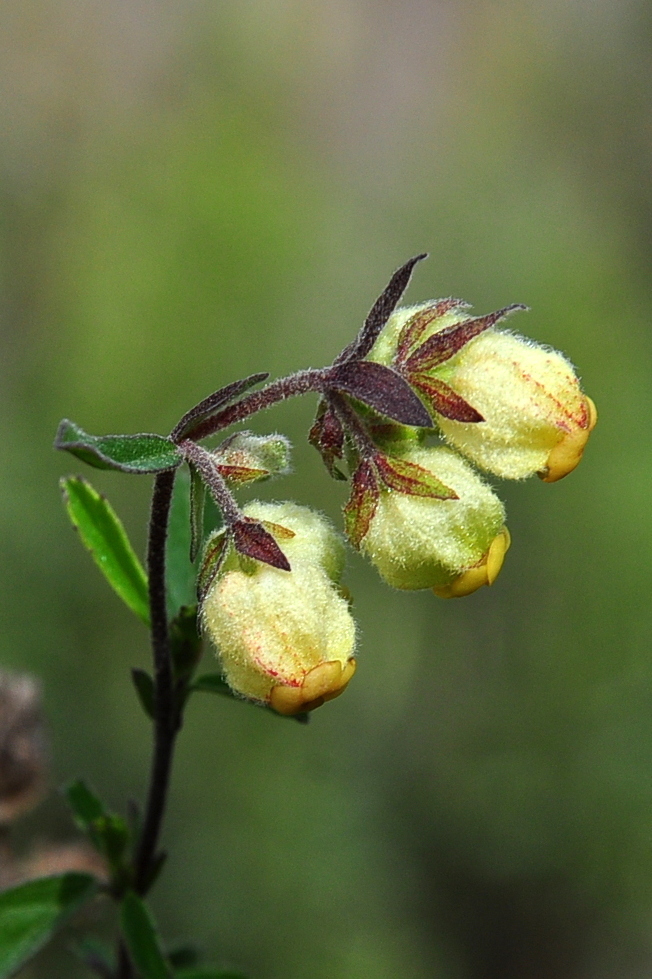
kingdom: Plantae
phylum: Tracheophyta
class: Magnoliopsida
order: Malvales
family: Malvaceae
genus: Hermannia
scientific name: Hermannia hyssopifolia
